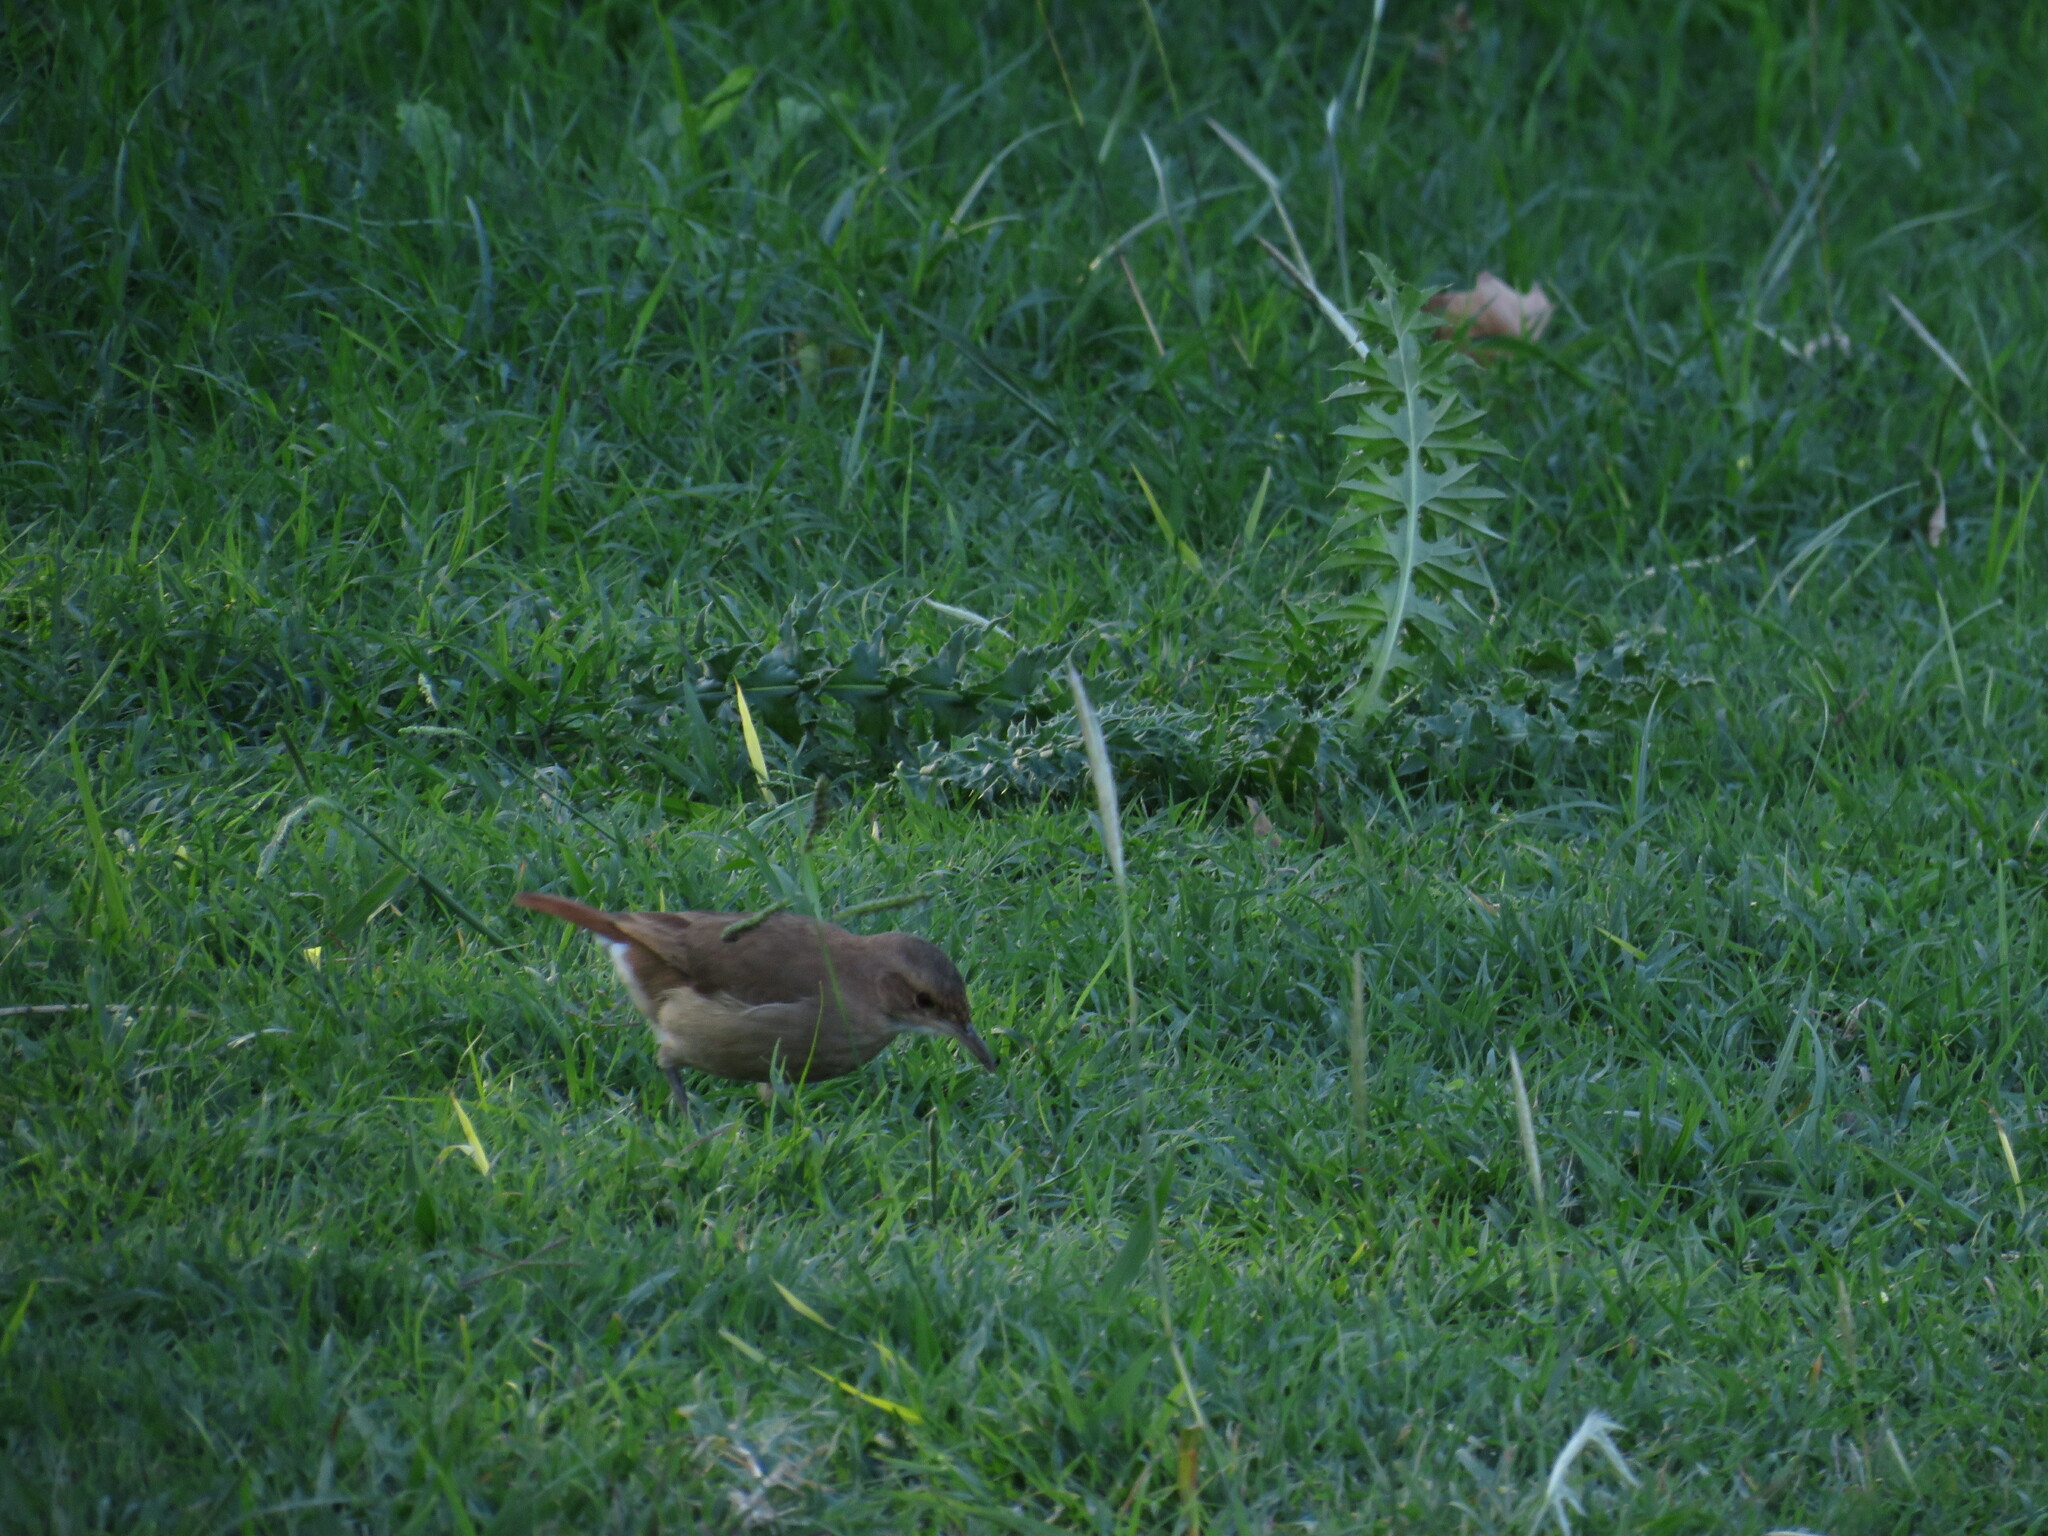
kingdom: Animalia
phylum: Chordata
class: Aves
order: Passeriformes
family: Furnariidae
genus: Furnarius
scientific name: Furnarius rufus
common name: Rufous hornero
